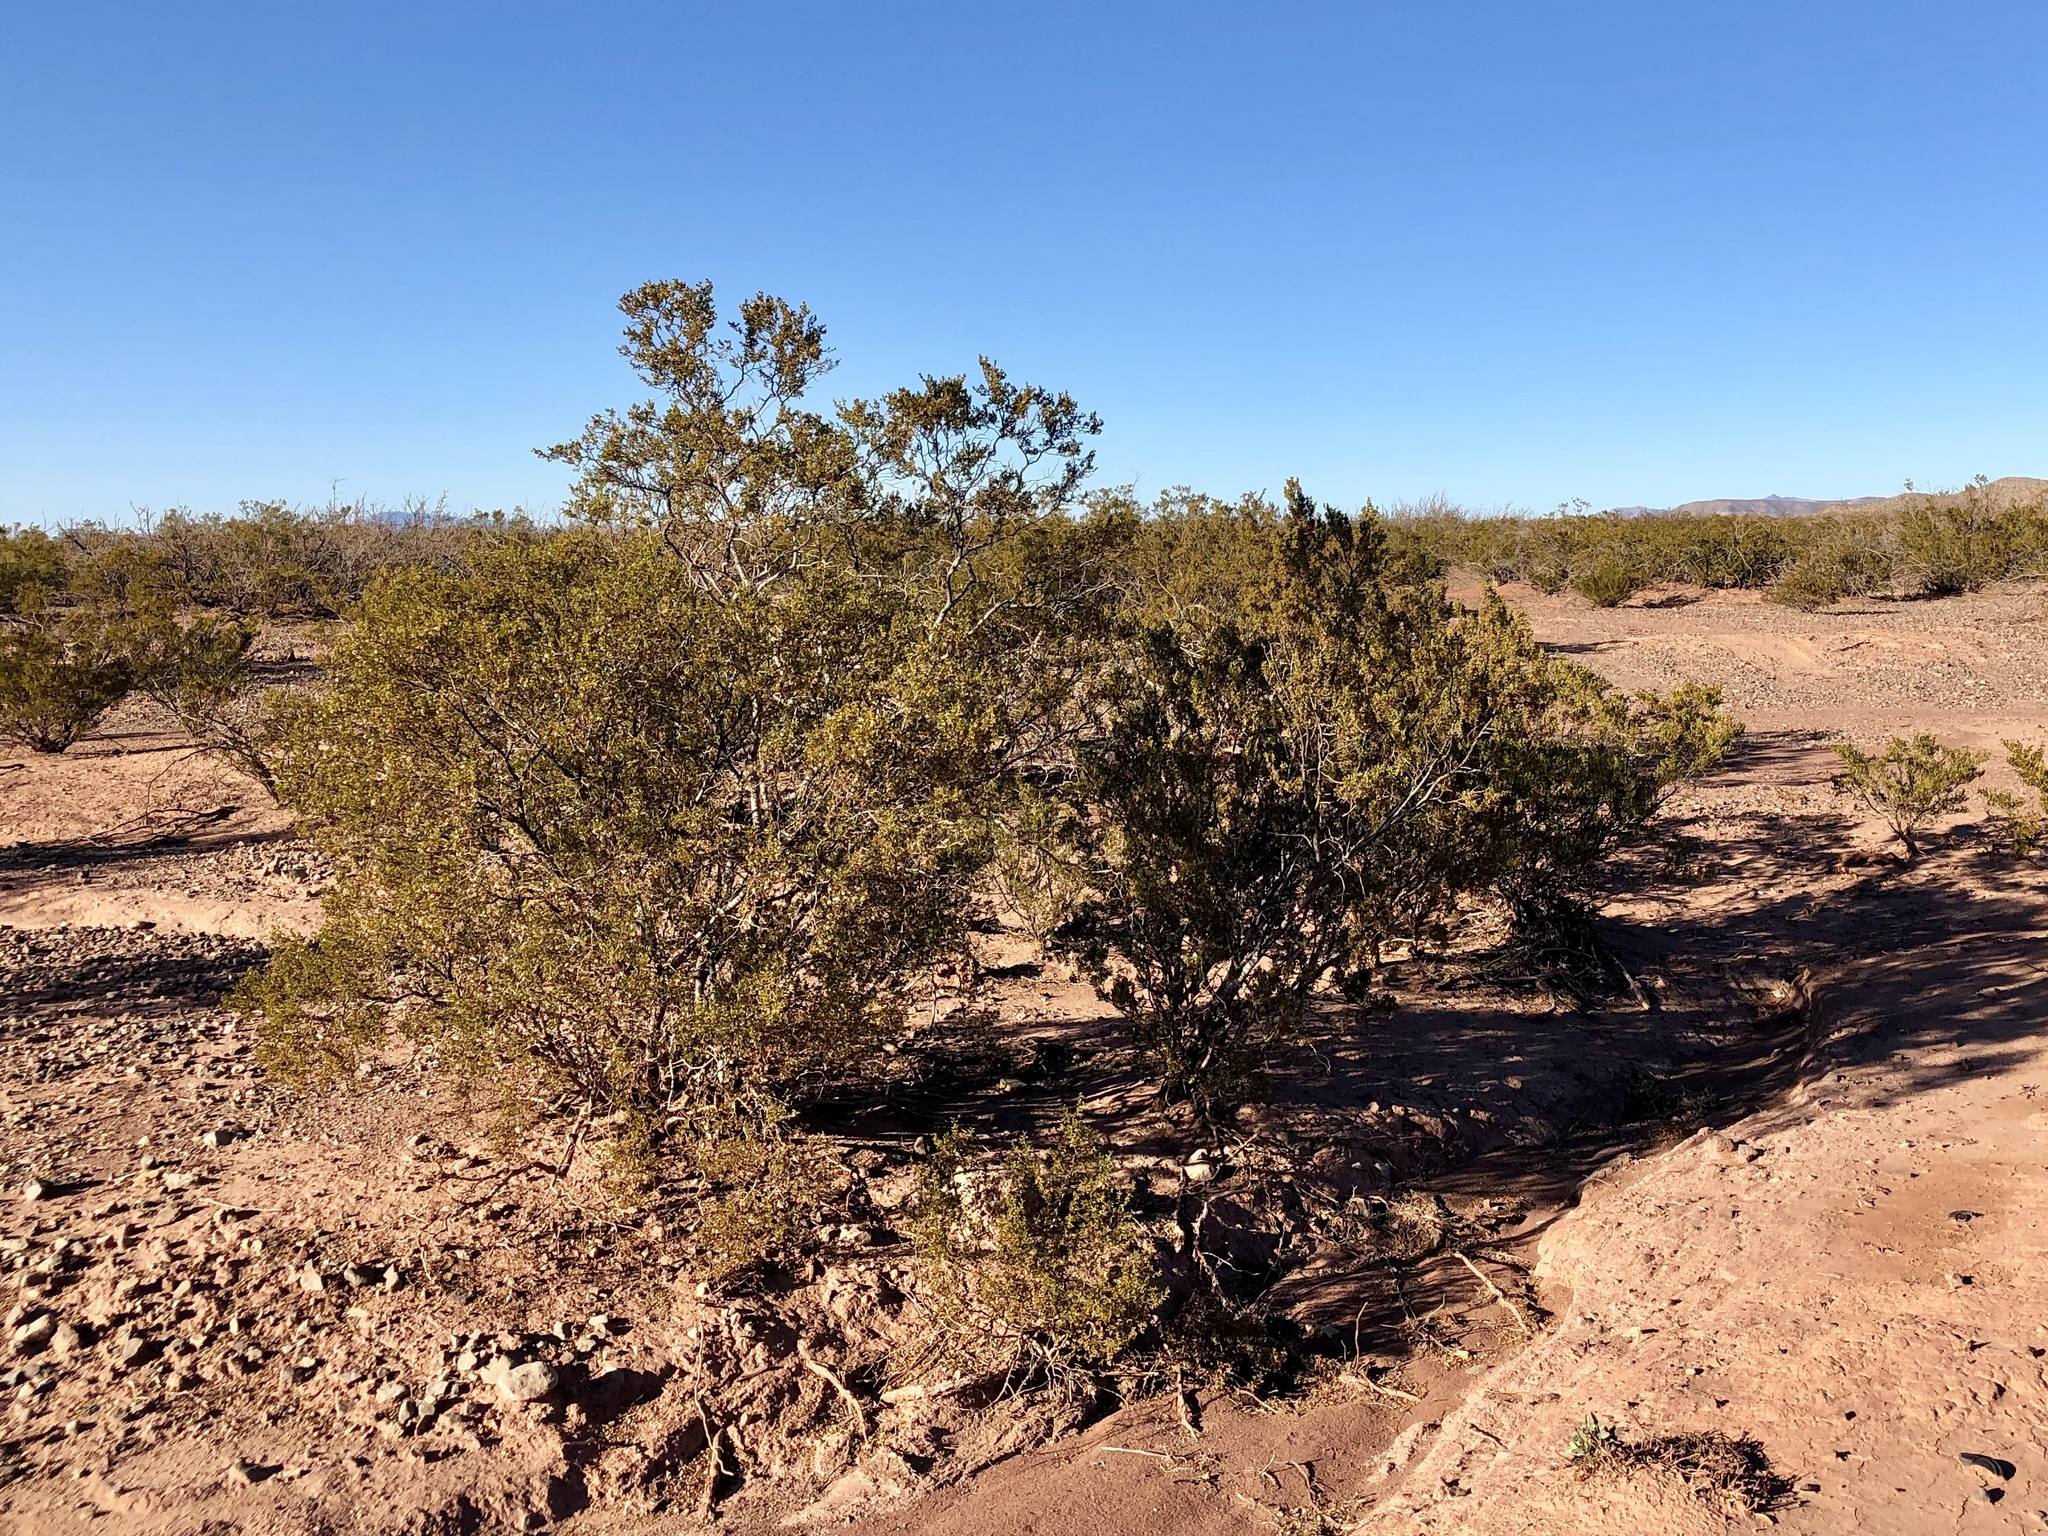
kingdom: Plantae
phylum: Tracheophyta
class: Magnoliopsida
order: Zygophyllales
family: Zygophyllaceae
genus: Larrea
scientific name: Larrea tridentata
